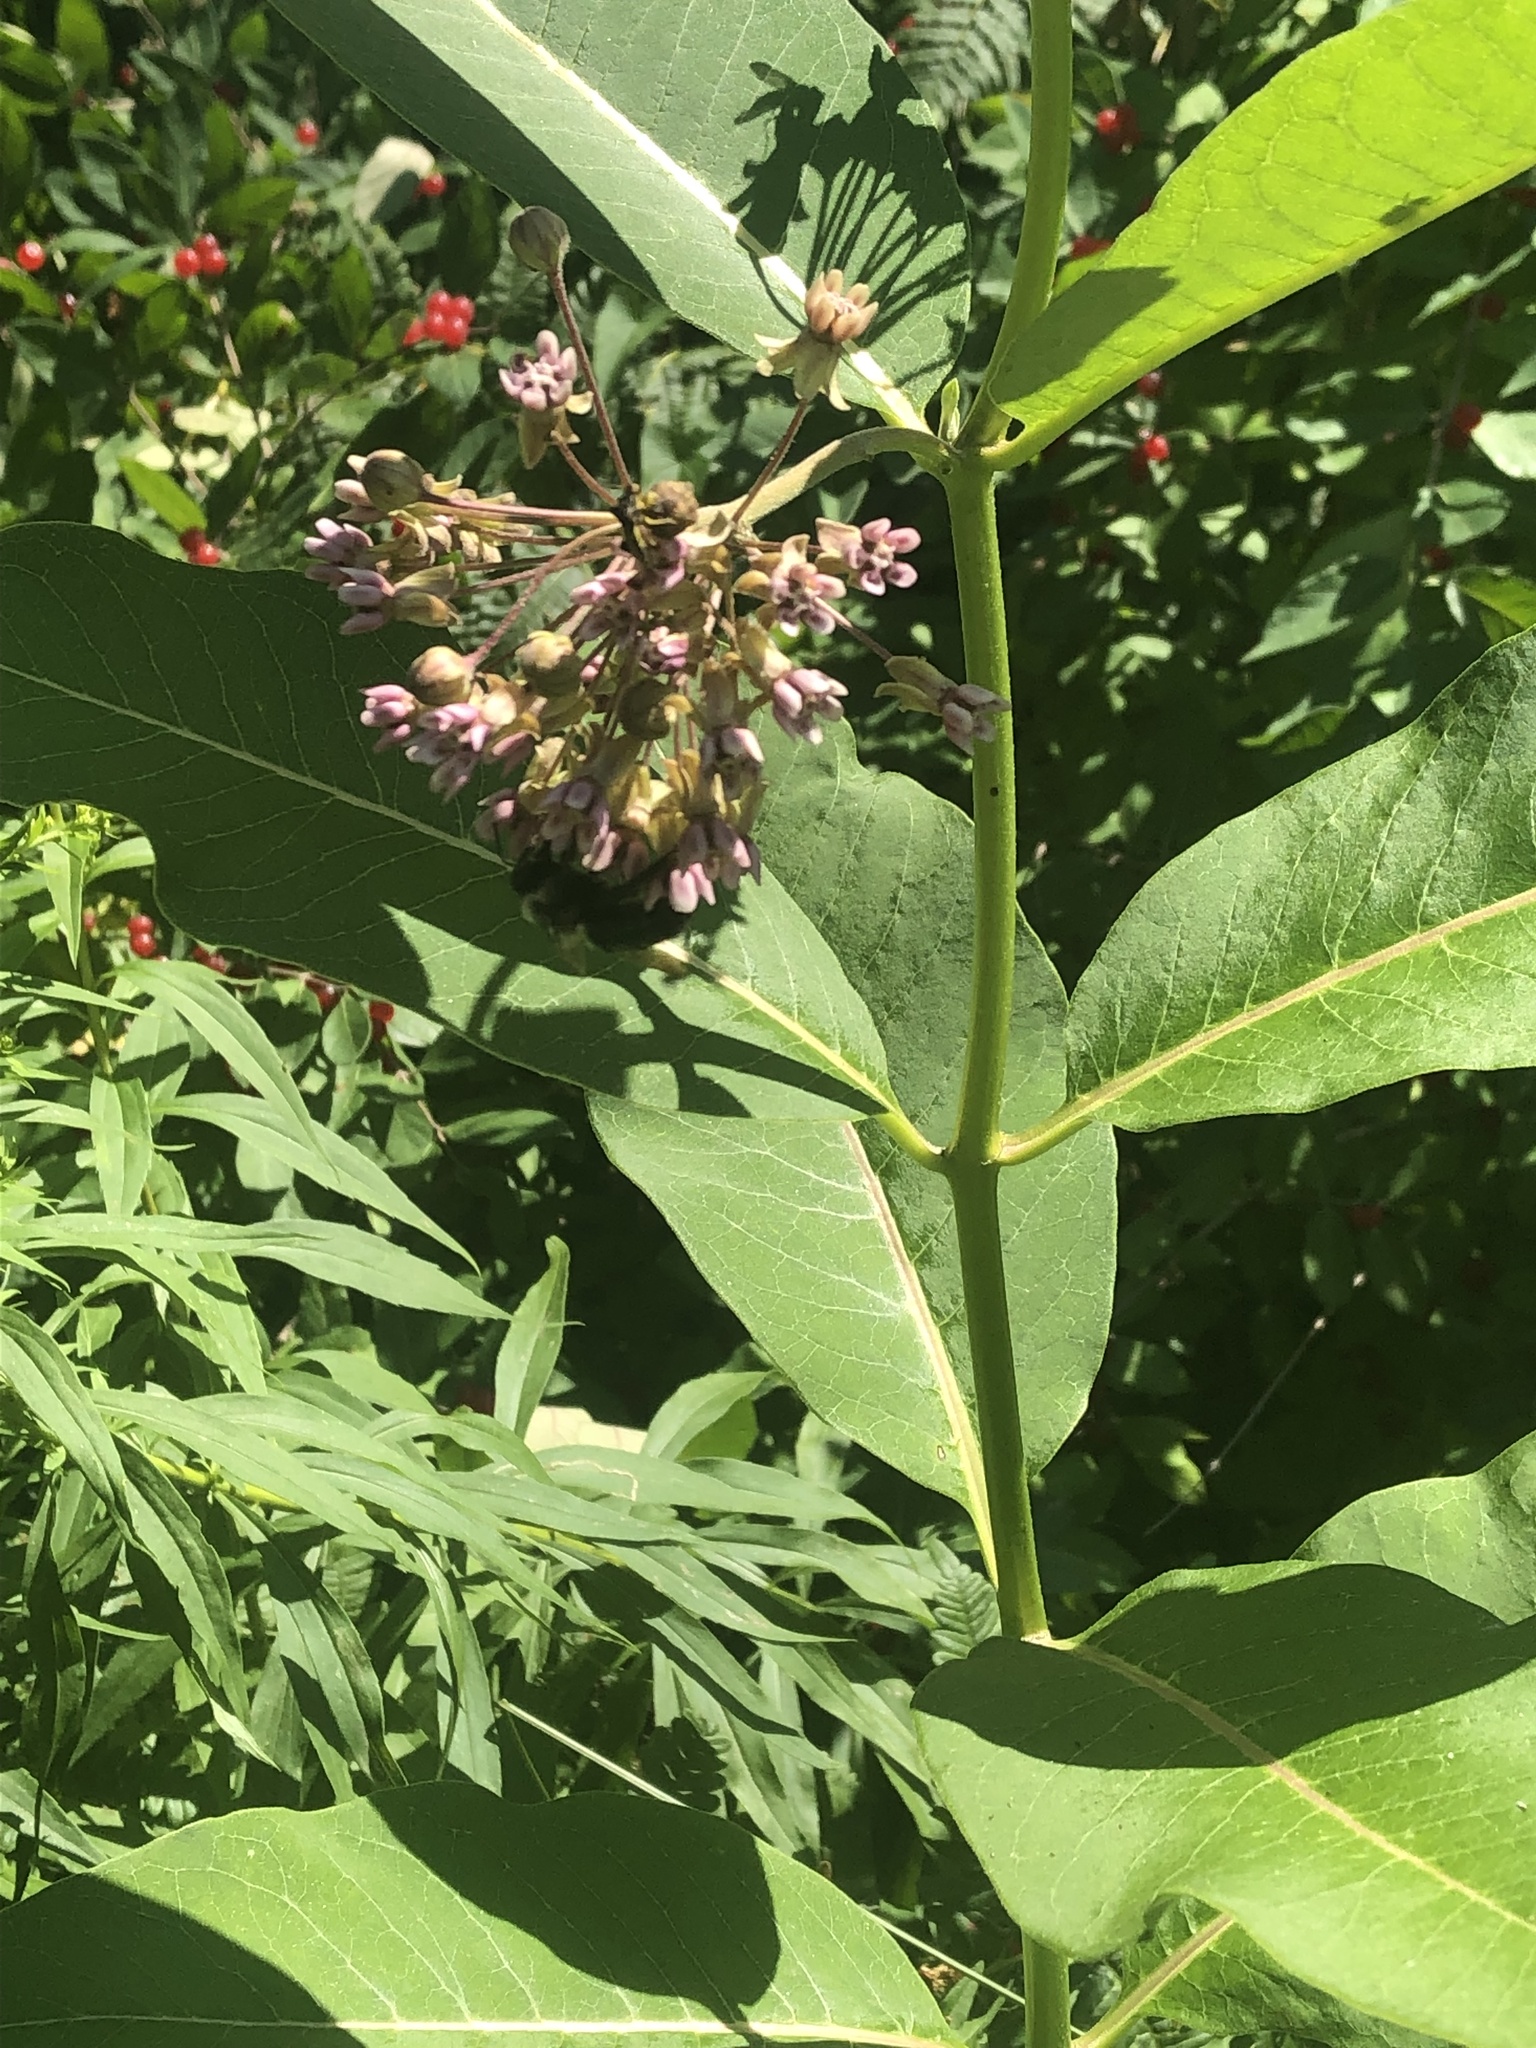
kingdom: Animalia
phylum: Arthropoda
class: Insecta
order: Hymenoptera
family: Apidae
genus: Xylocopa
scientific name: Xylocopa virginica
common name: Carpenter bee
